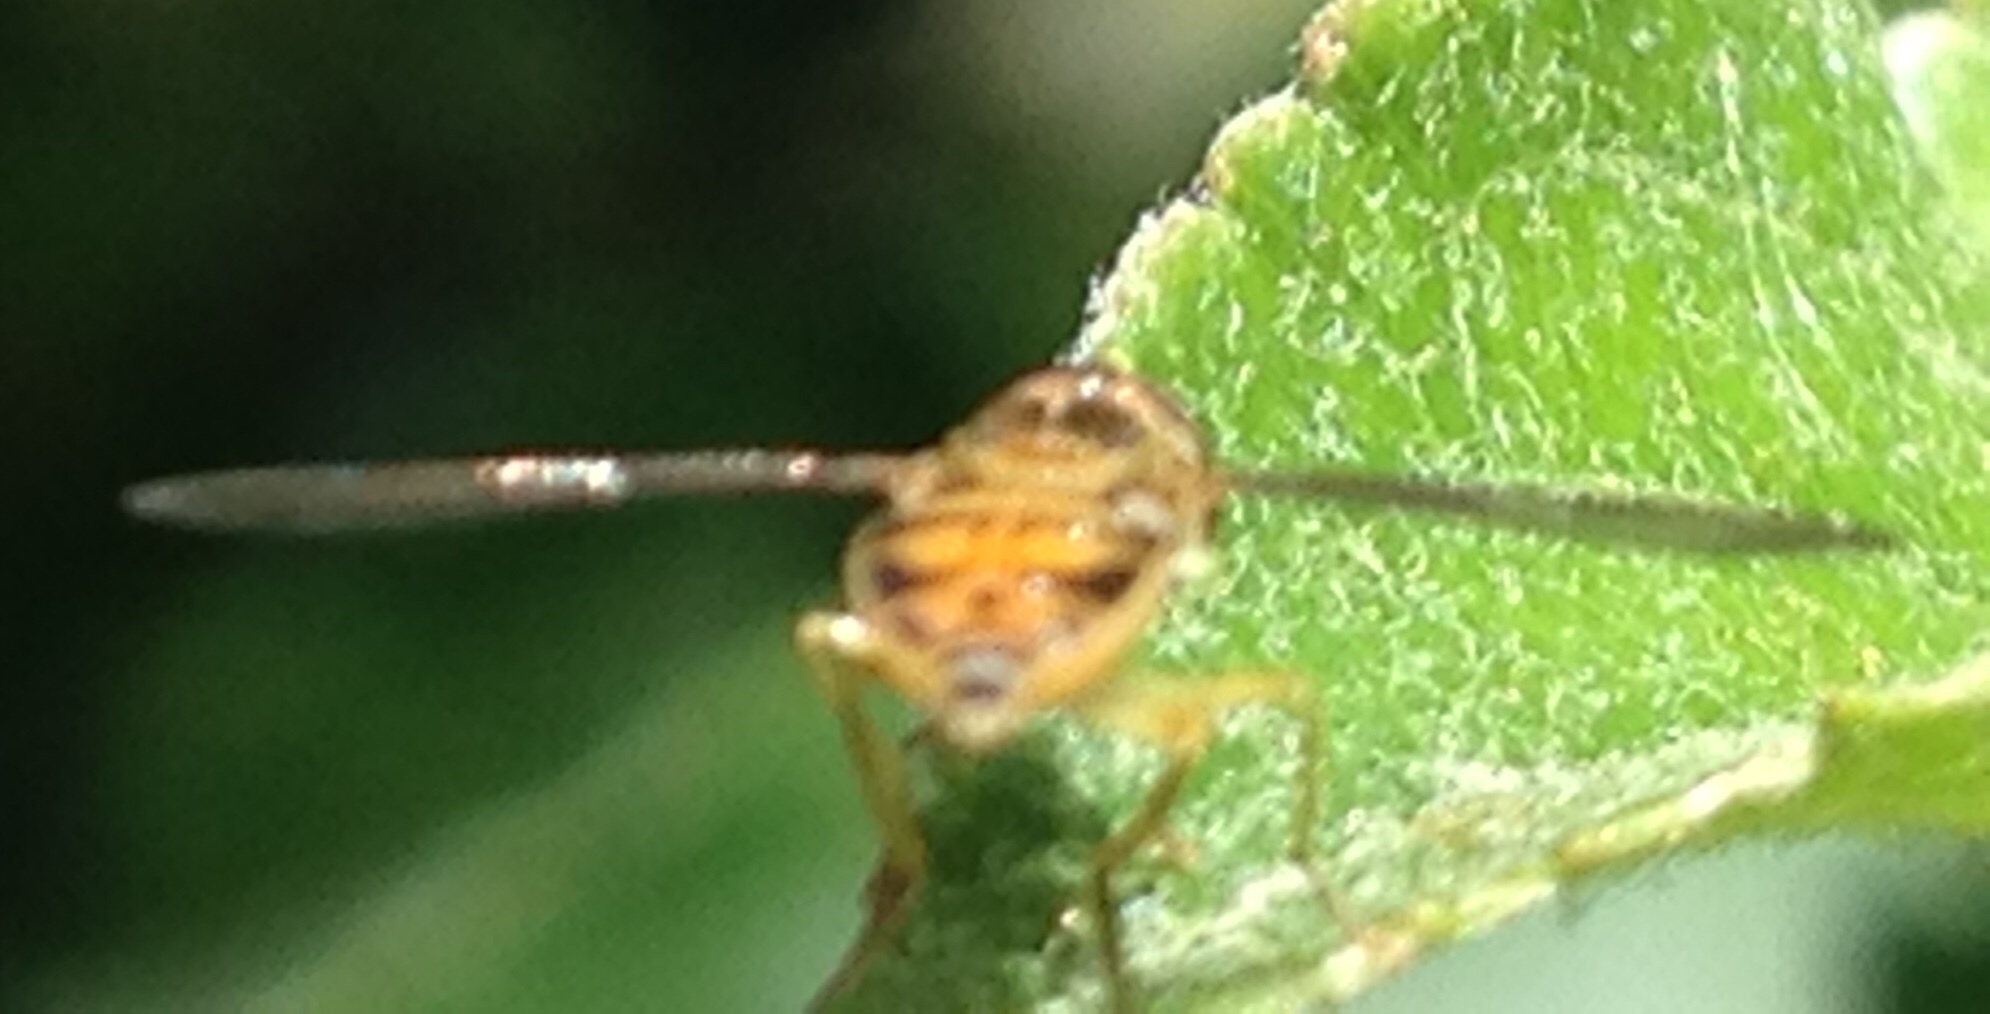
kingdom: Animalia
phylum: Arthropoda
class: Insecta
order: Diptera
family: Syrphidae
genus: Toxomerus
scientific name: Toxomerus marginatus
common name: Syrphid fly
